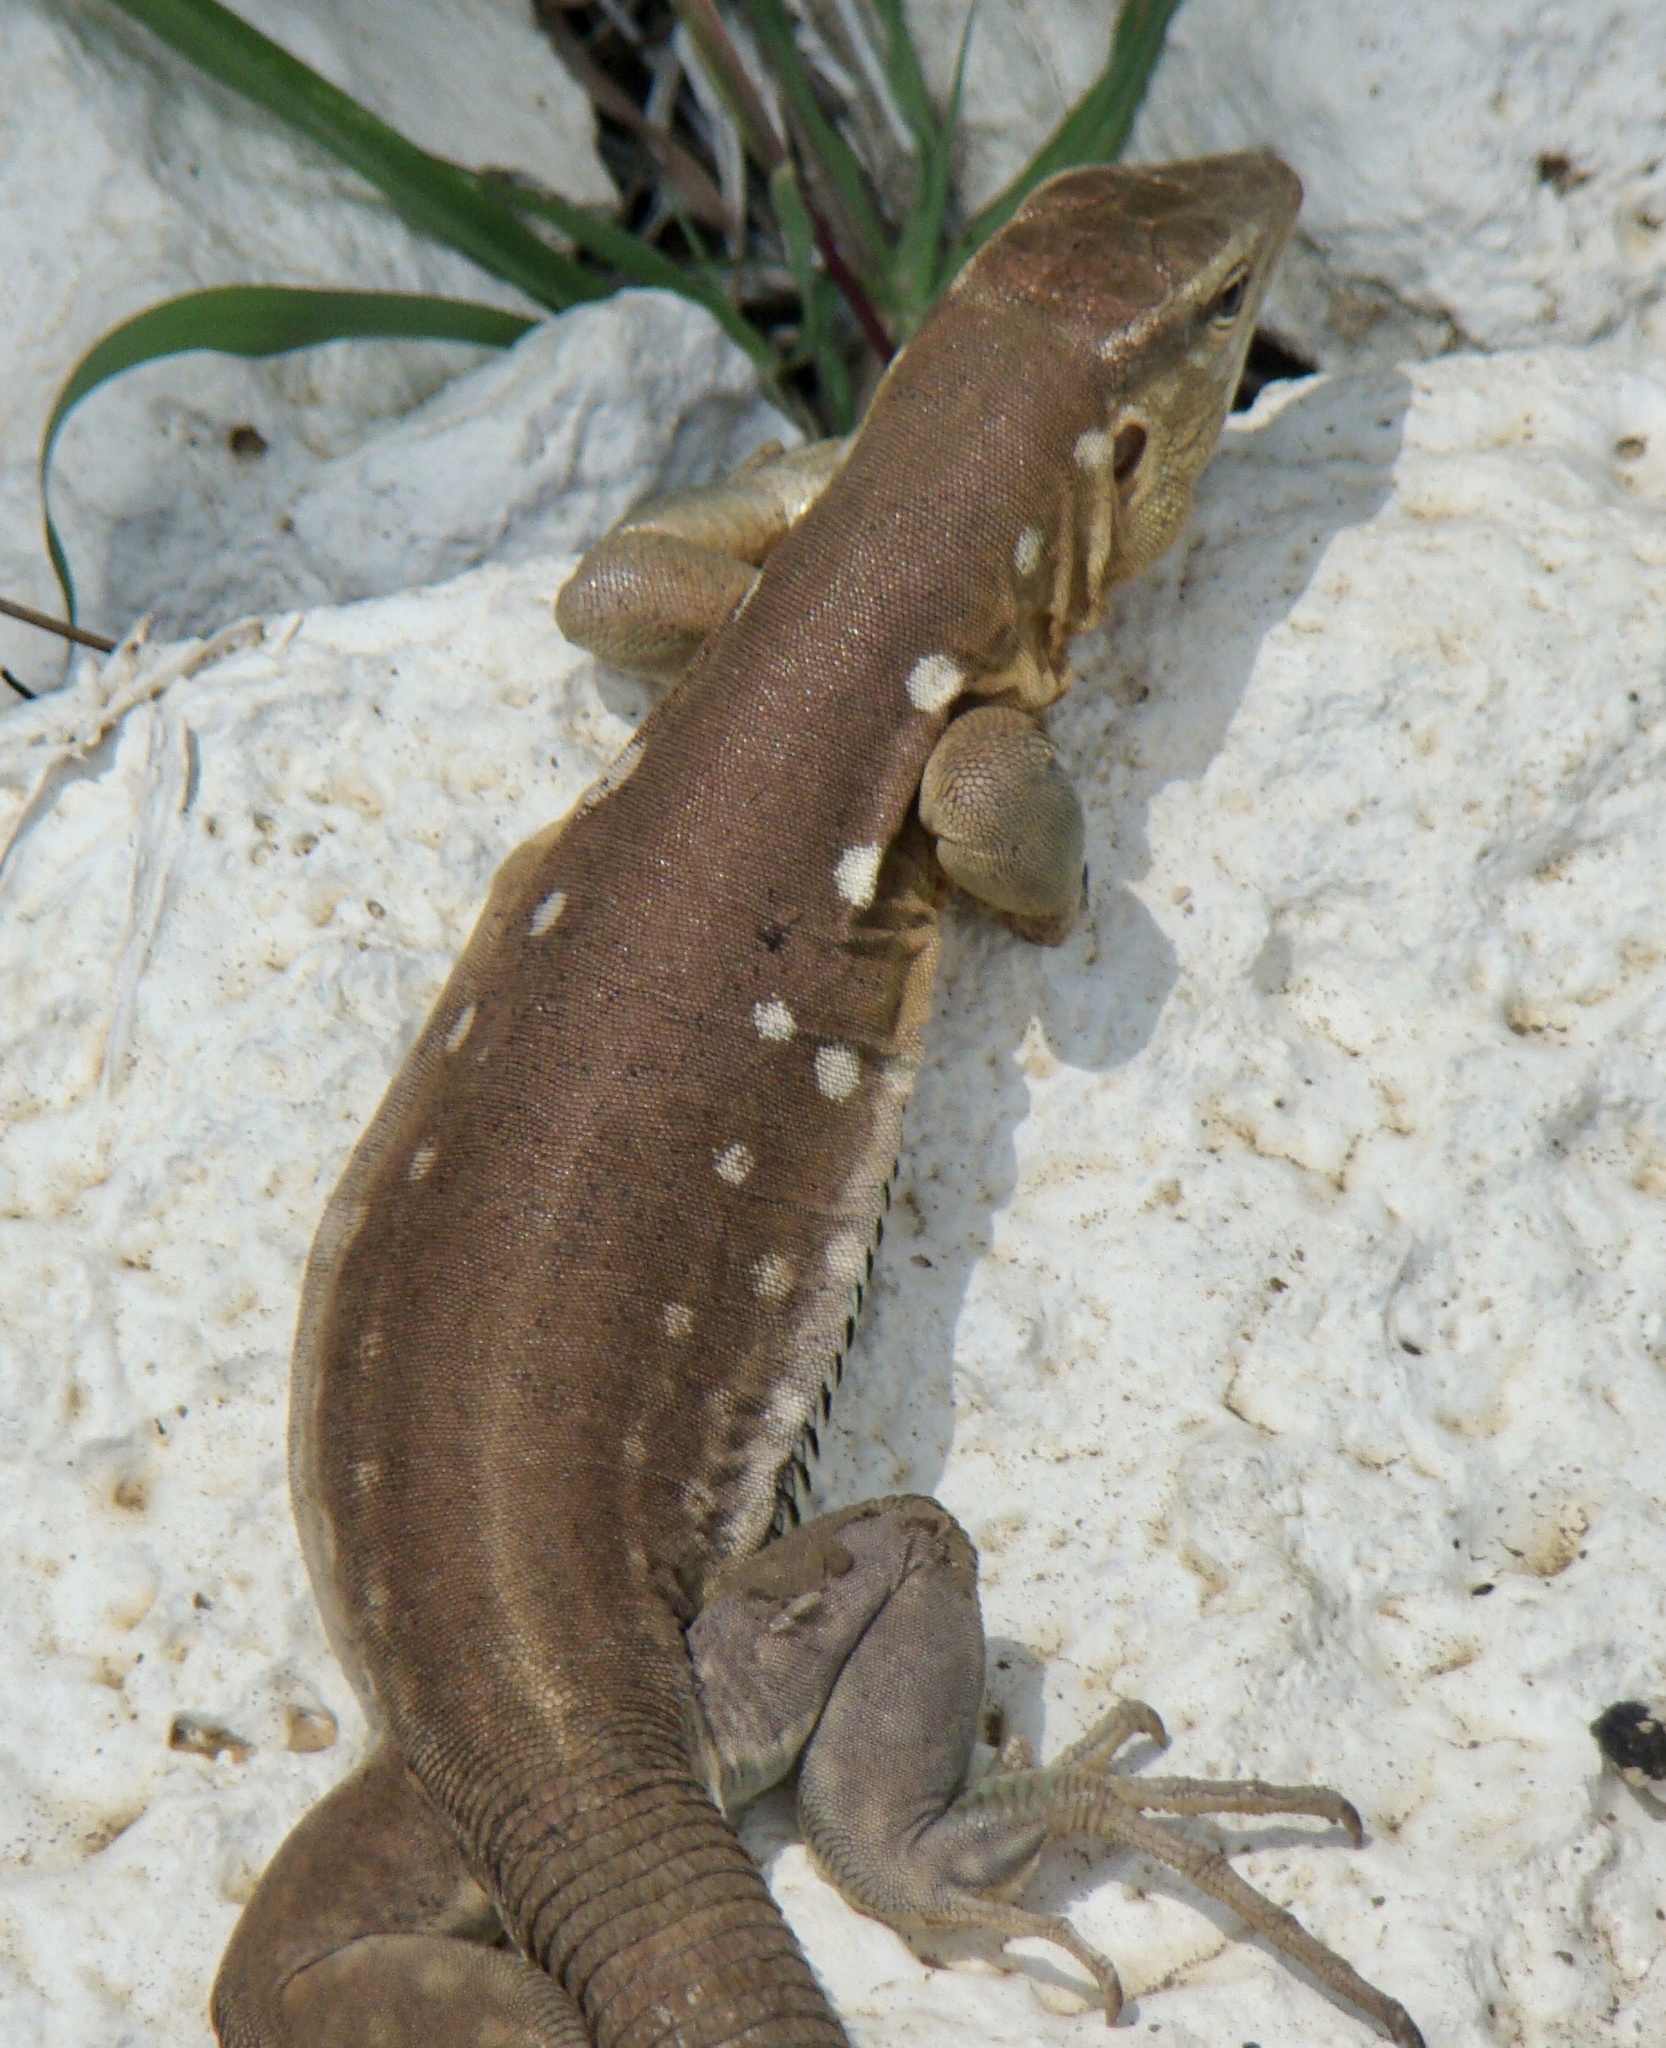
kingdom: Animalia
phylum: Chordata
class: Squamata
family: Teiidae
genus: Cnemidophorus
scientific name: Cnemidophorus murinus
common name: Laurent's whiptail
